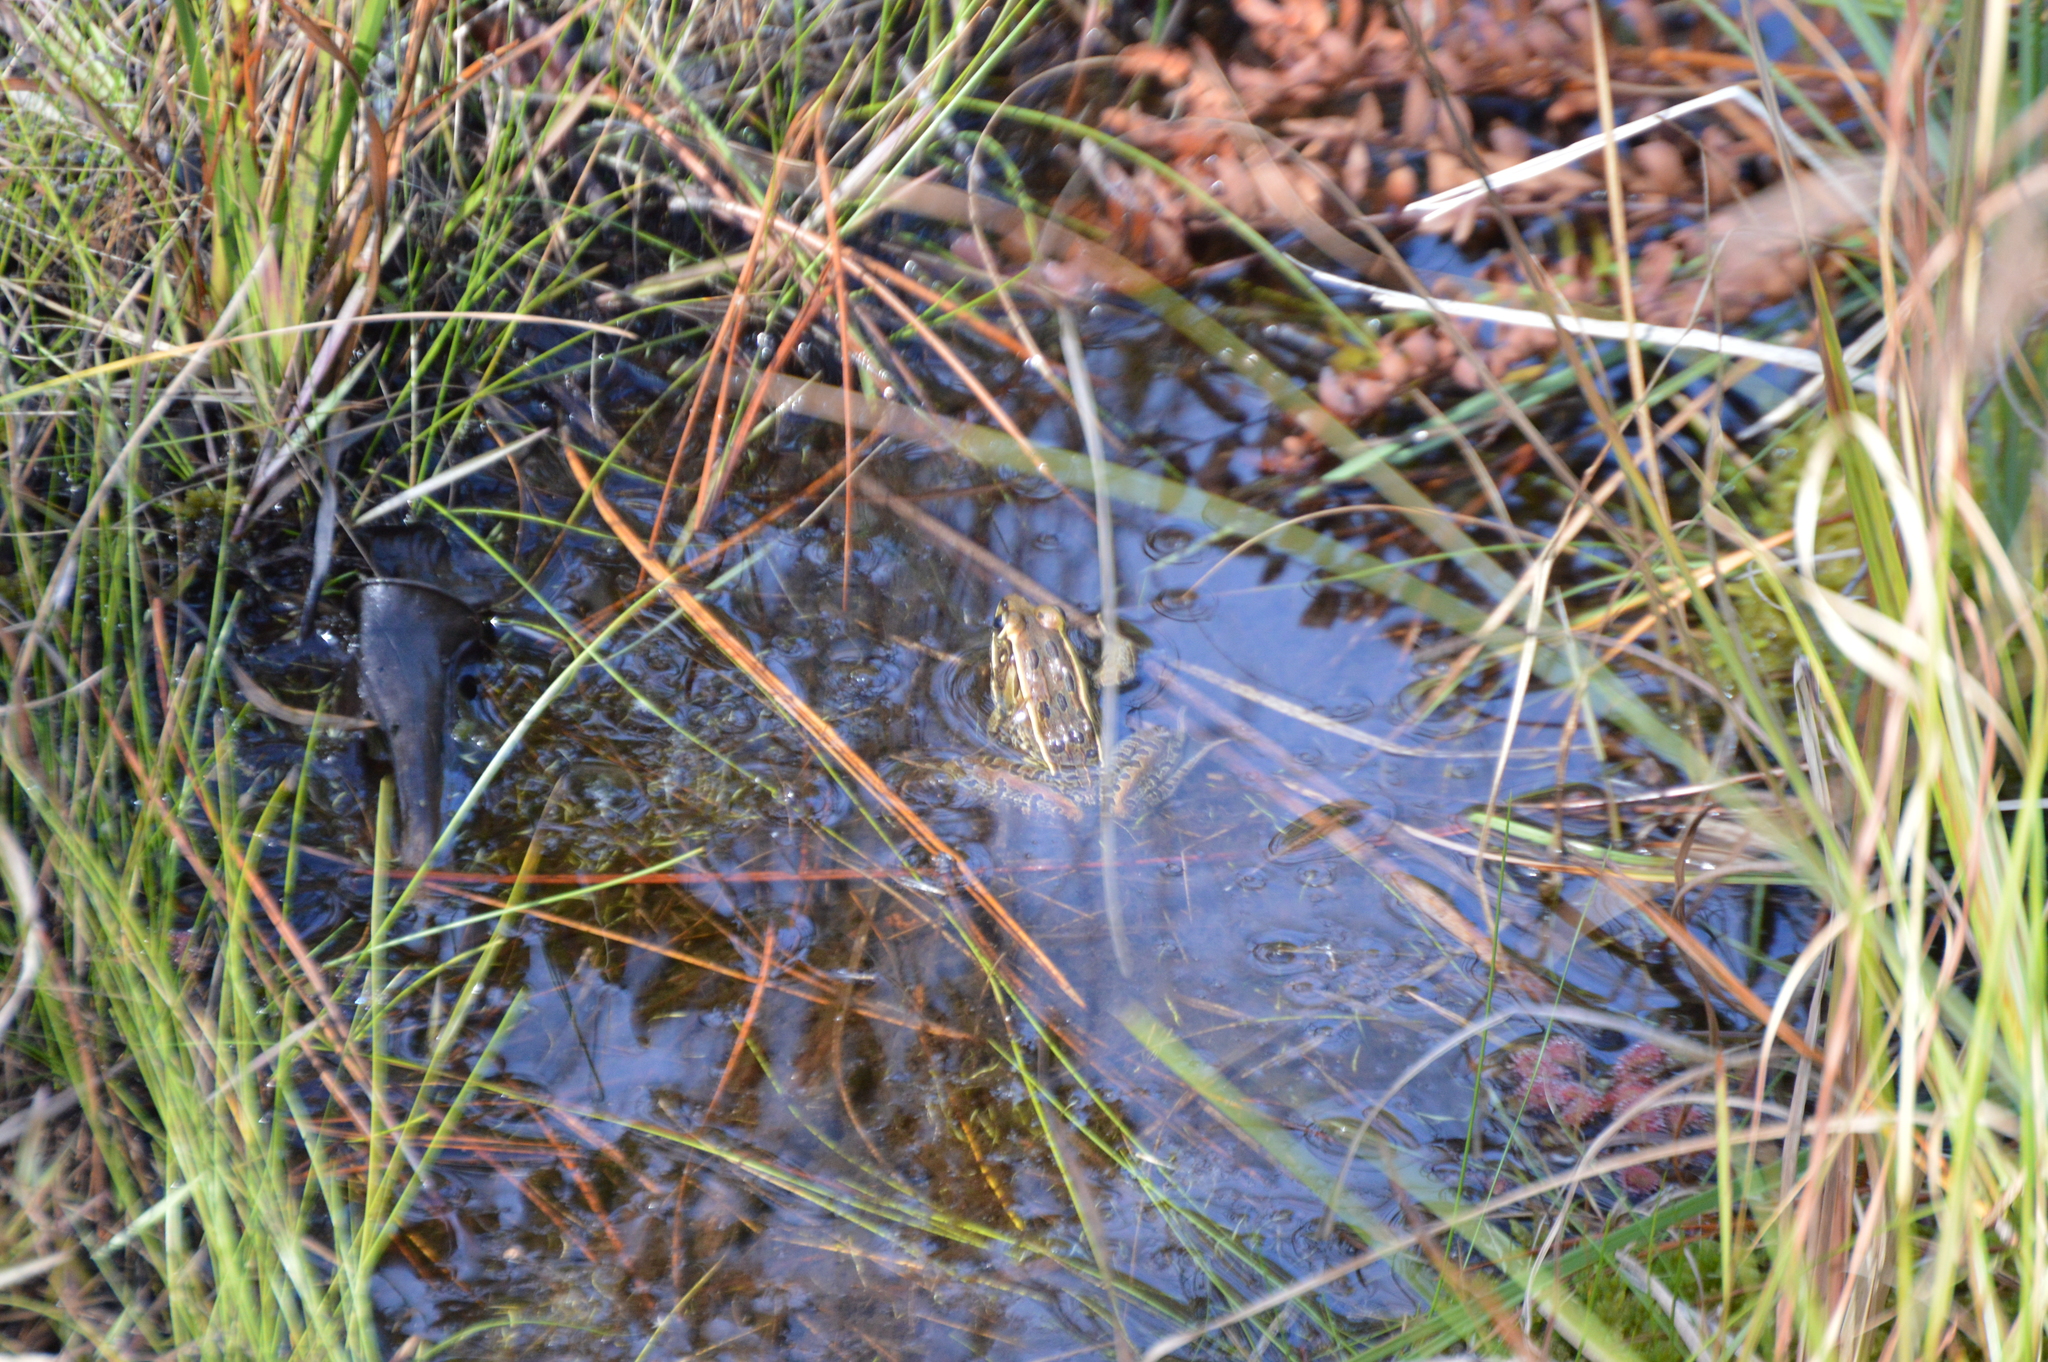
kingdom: Animalia
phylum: Chordata
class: Amphibia
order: Anura
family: Ranidae
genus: Lithobates
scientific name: Lithobates sphenocephalus
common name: Southern leopard frog
